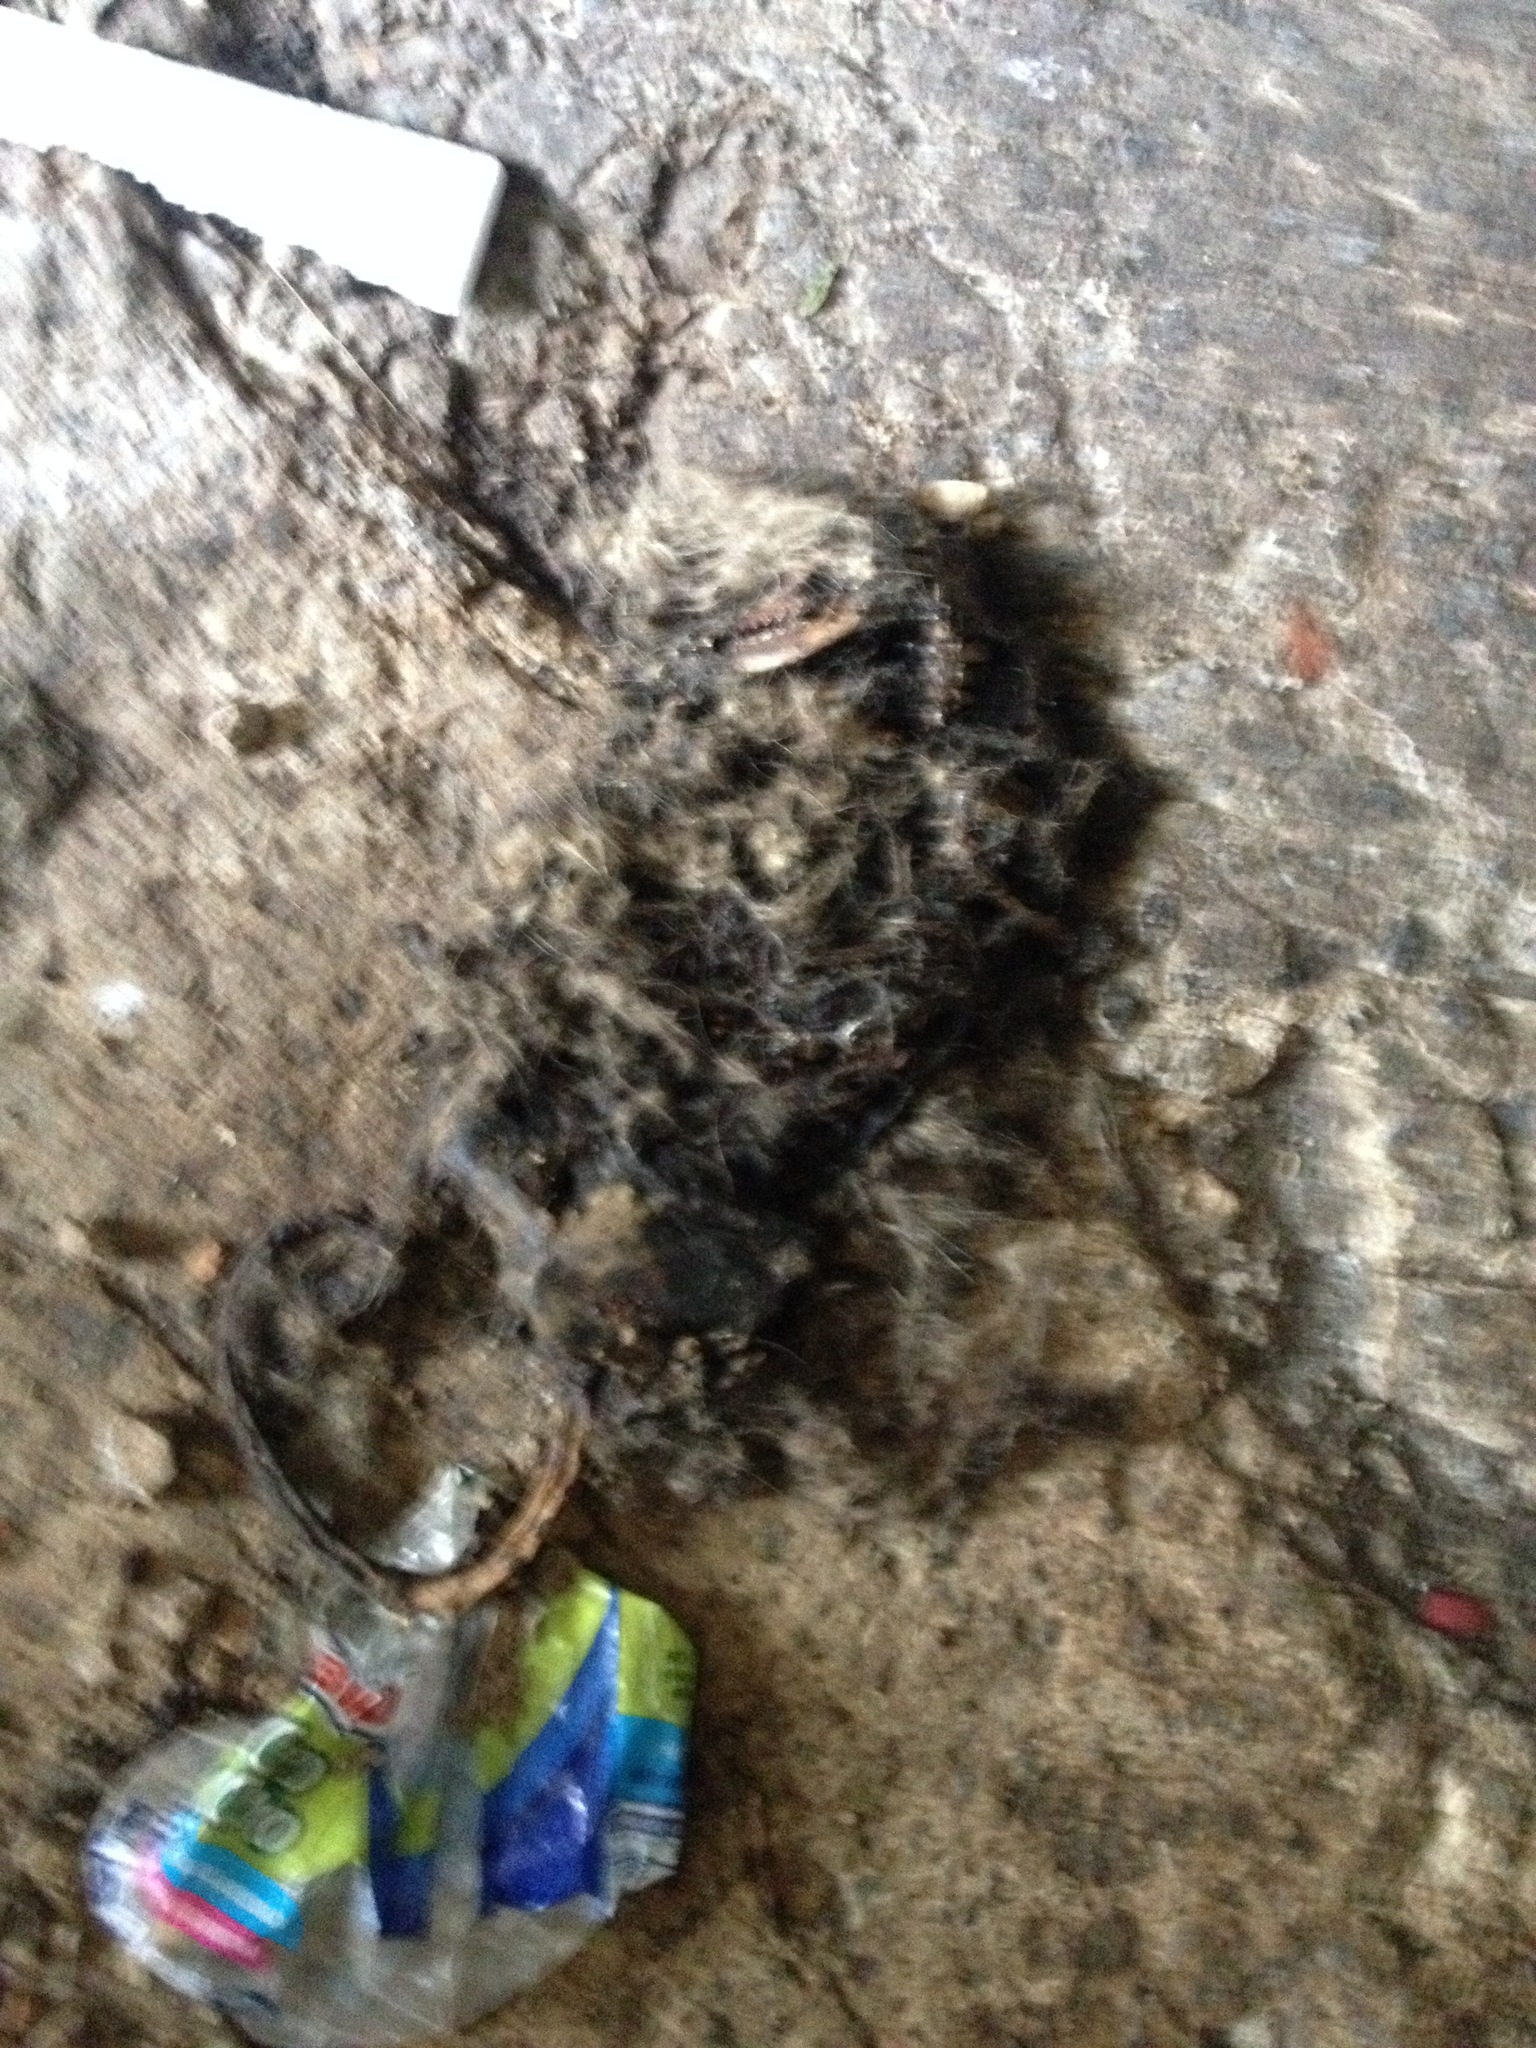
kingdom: Animalia
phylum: Chordata
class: Mammalia
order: Didelphimorphia
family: Didelphidae
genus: Didelphis
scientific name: Didelphis virginiana
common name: Virginia opossum
